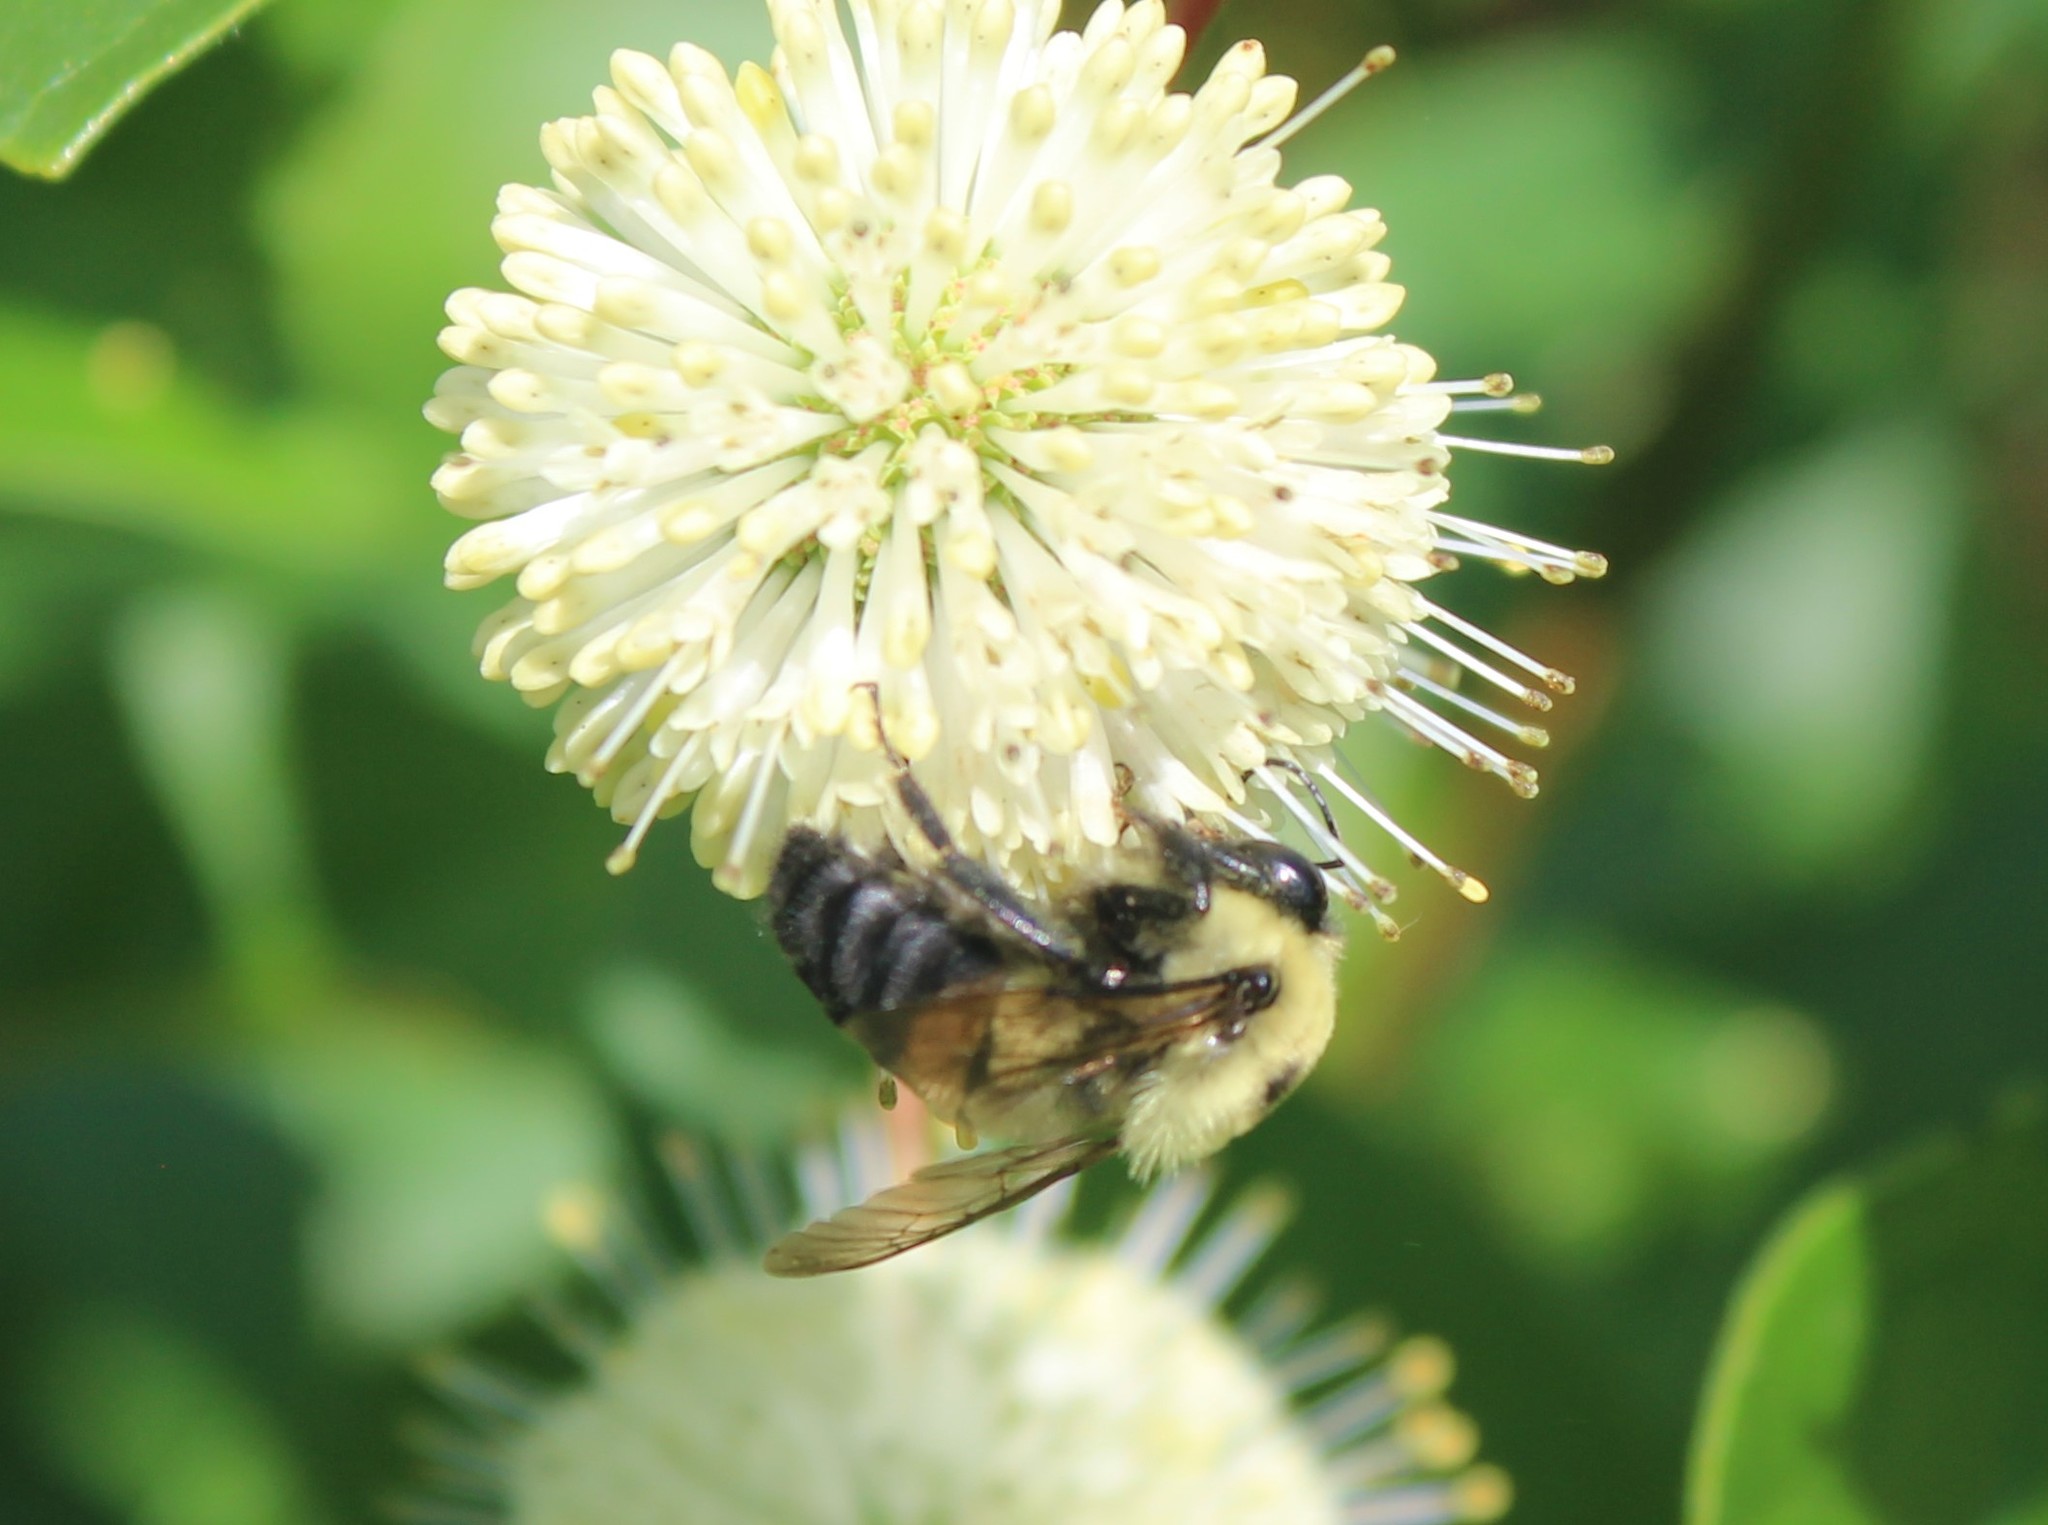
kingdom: Animalia
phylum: Arthropoda
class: Insecta
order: Hymenoptera
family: Apidae
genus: Bombus
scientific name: Bombus griseocollis
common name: Brown-belted bumble bee
